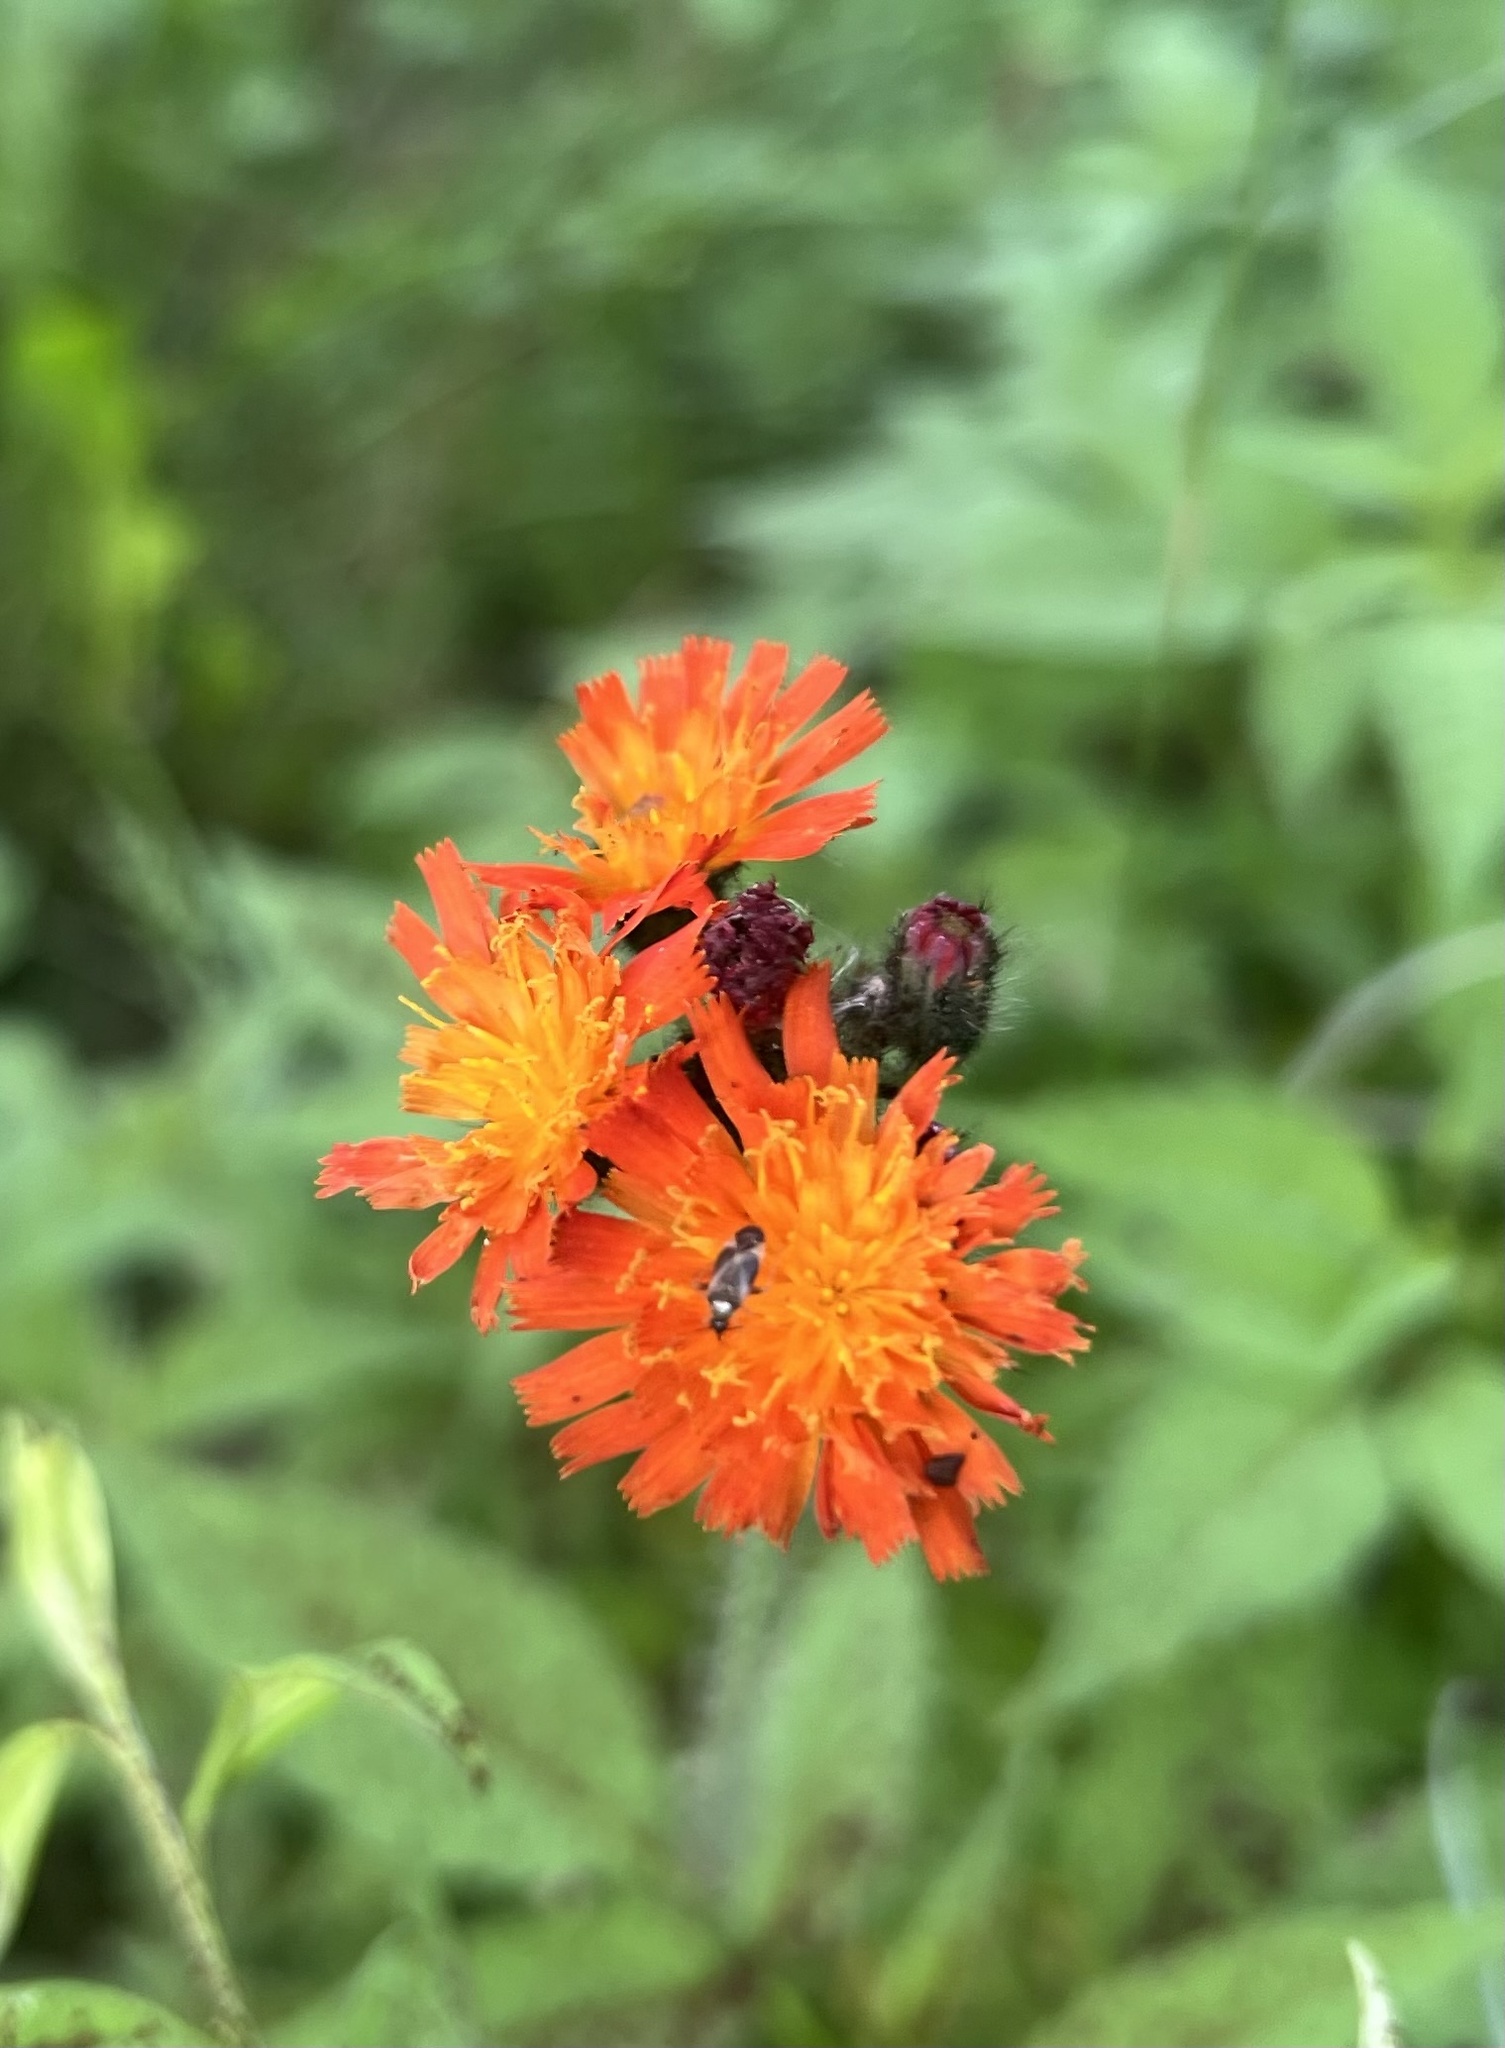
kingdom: Plantae
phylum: Tracheophyta
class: Magnoliopsida
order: Asterales
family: Asteraceae
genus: Pilosella
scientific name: Pilosella aurantiaca
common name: Fox-and-cubs
